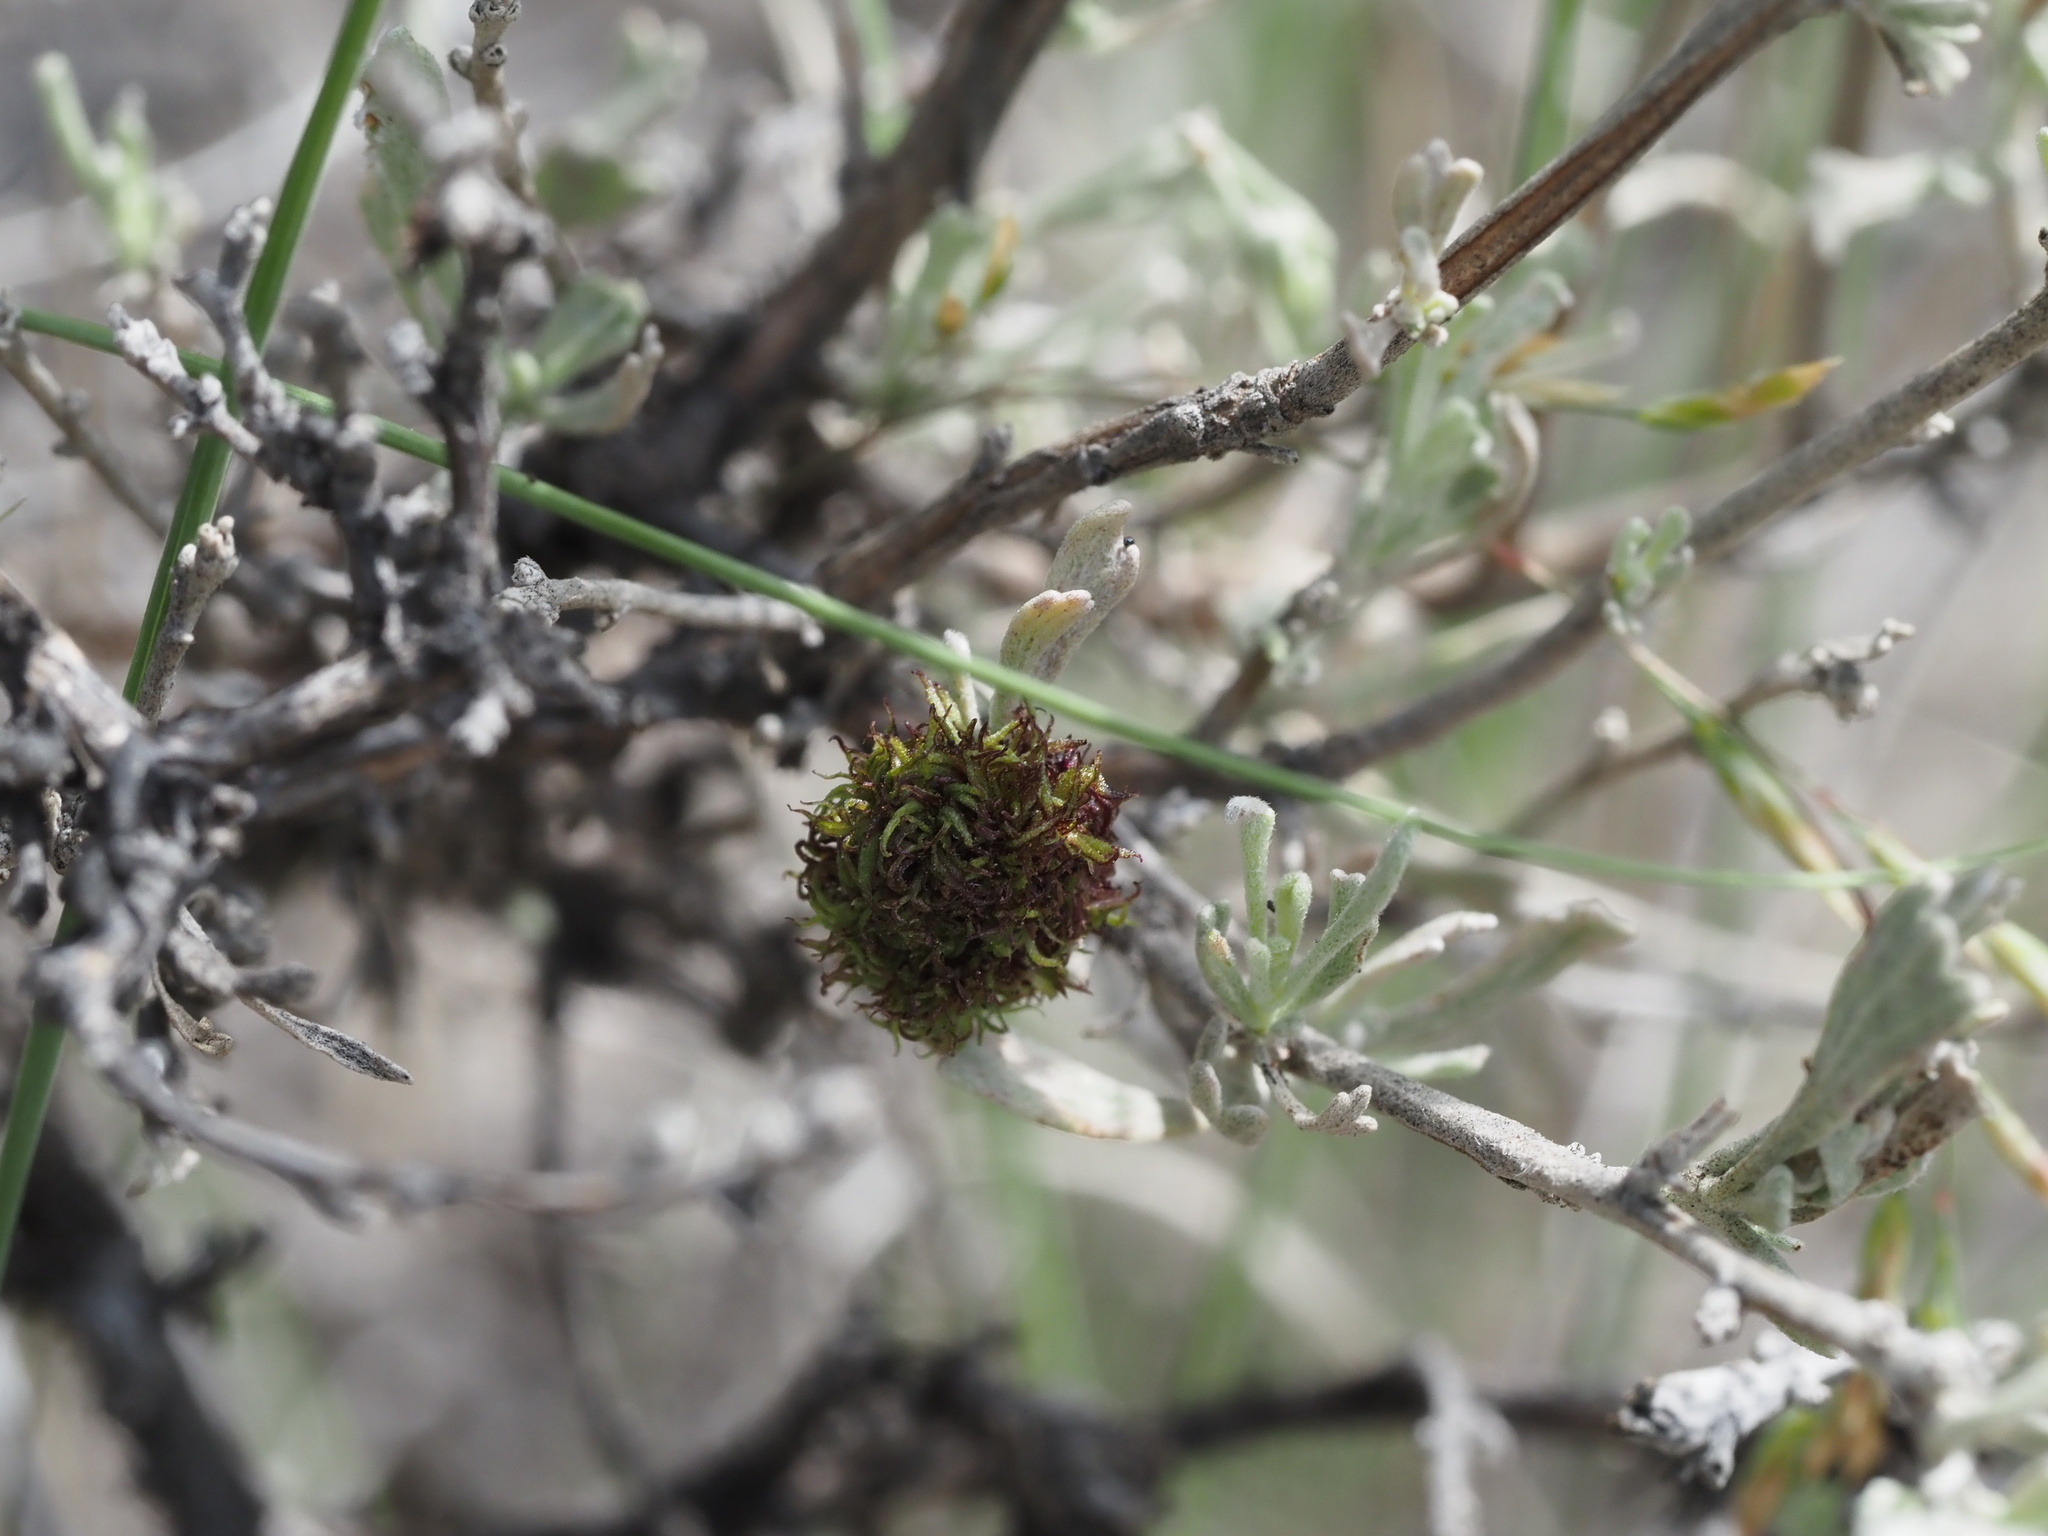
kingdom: Animalia
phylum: Arthropoda
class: Insecta
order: Diptera
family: Cecidomyiidae
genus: Rhopalomyia
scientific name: Rhopalomyia medusa
